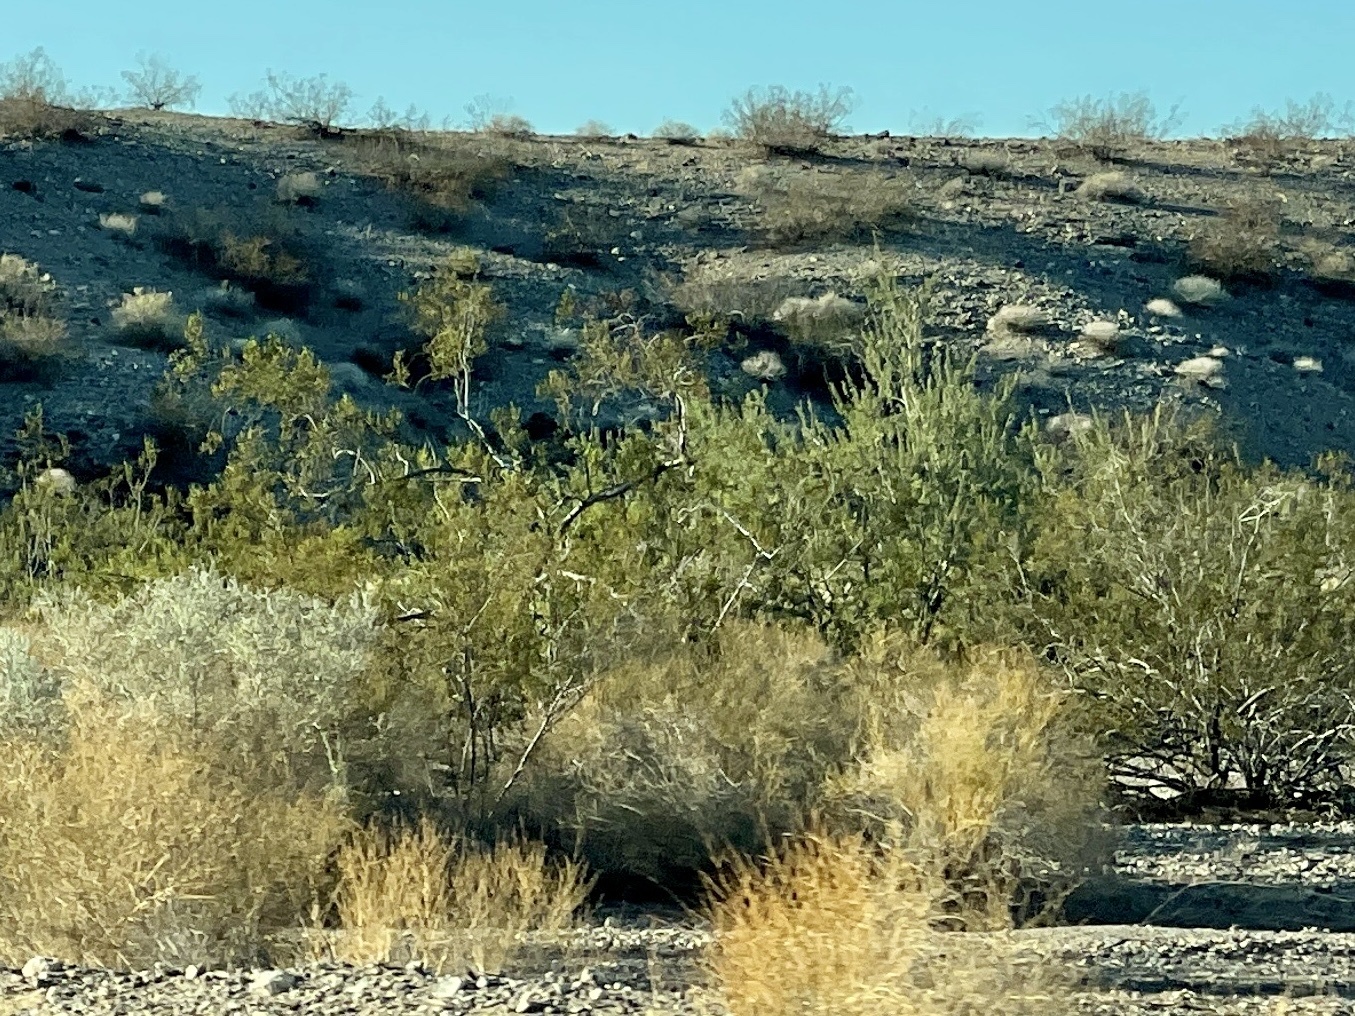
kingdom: Plantae
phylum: Tracheophyta
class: Magnoliopsida
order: Zygophyllales
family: Zygophyllaceae
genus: Larrea
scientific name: Larrea tridentata
